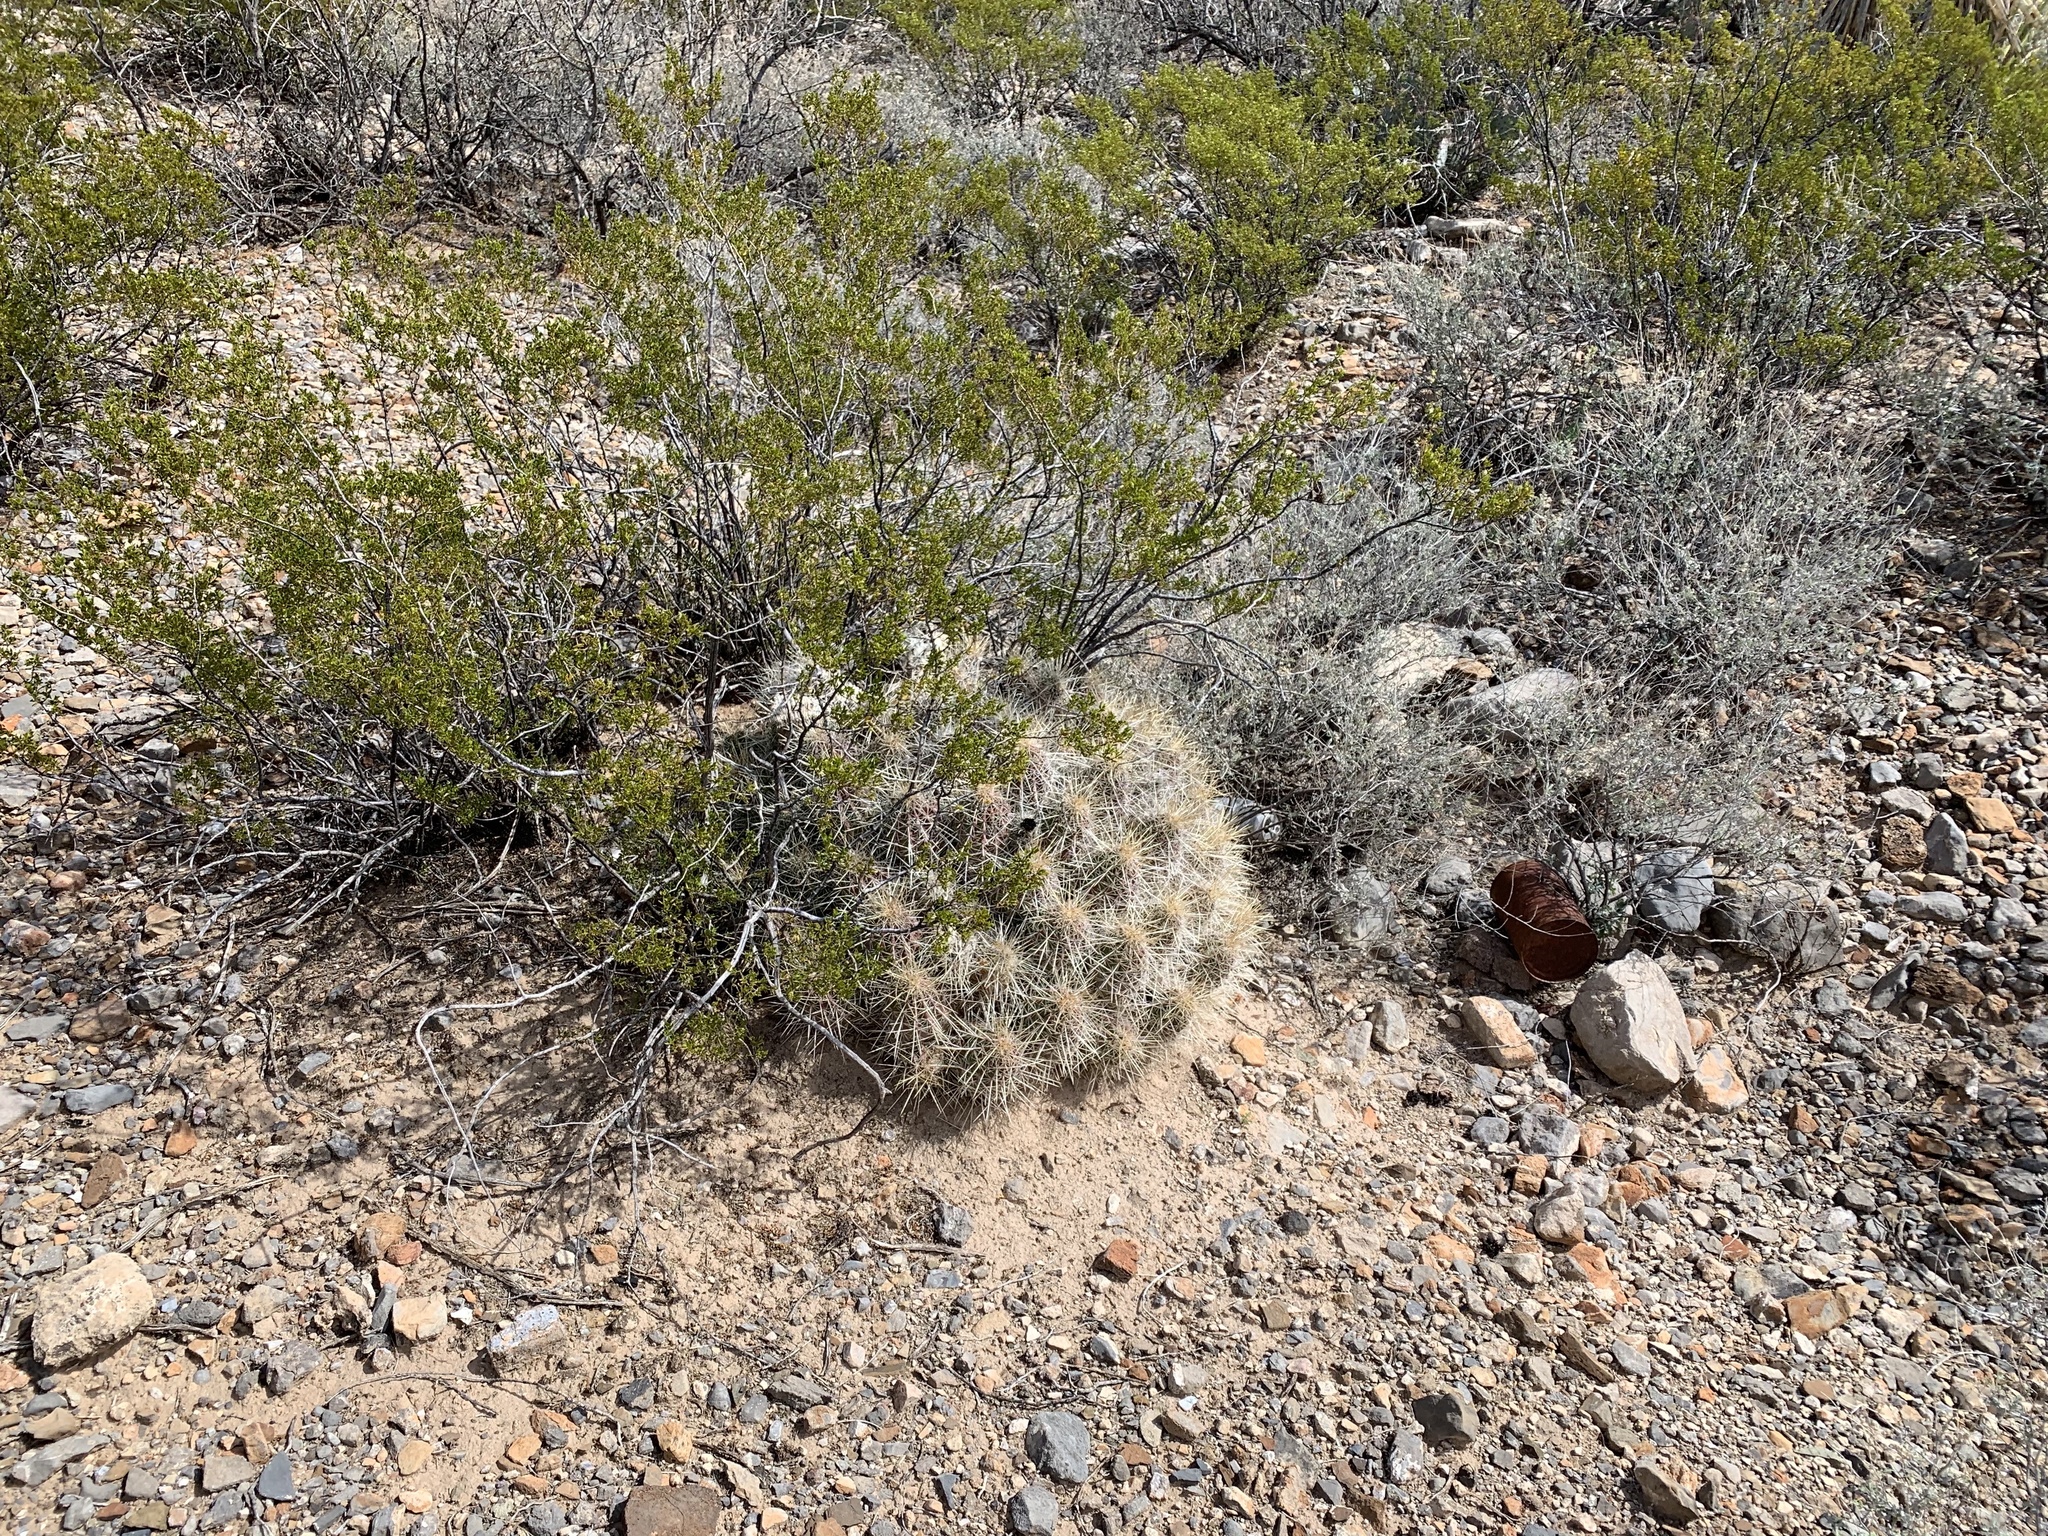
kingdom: Plantae
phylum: Tracheophyta
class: Magnoliopsida
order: Caryophyllales
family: Cactaceae
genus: Echinocereus
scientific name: Echinocereus stramineus
